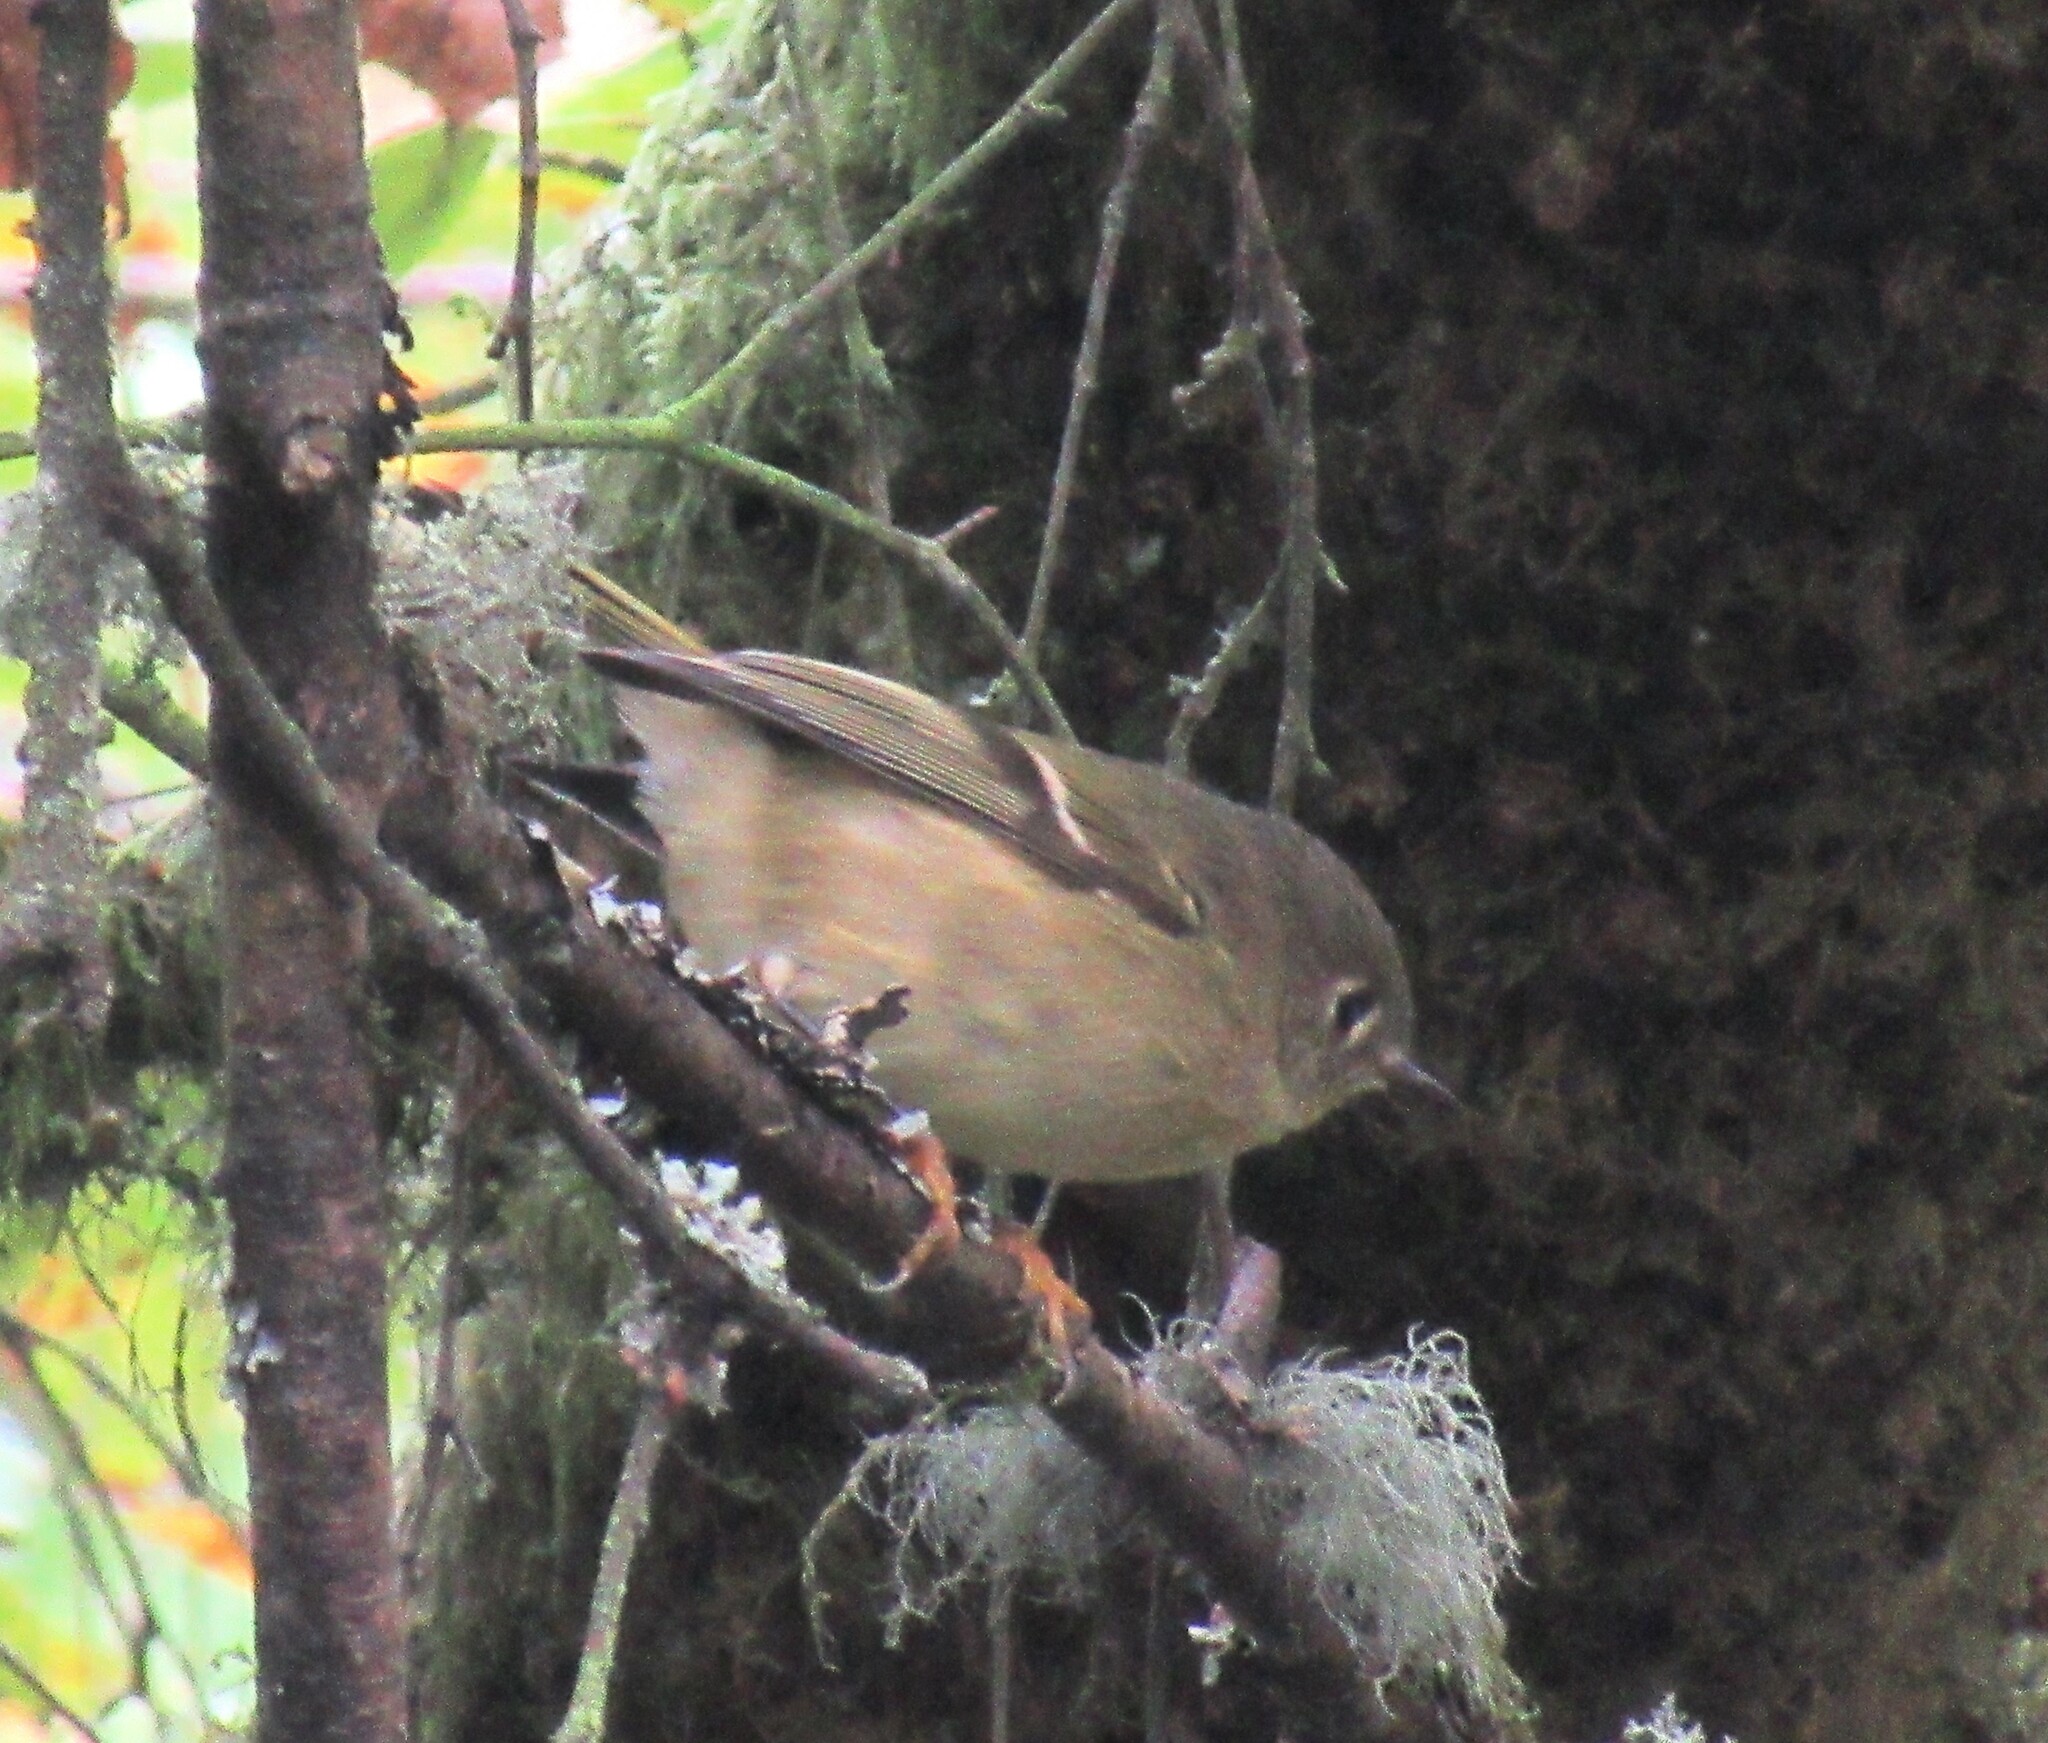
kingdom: Animalia
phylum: Chordata
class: Aves
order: Passeriformes
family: Regulidae
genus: Regulus
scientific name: Regulus calendula
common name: Ruby-crowned kinglet
